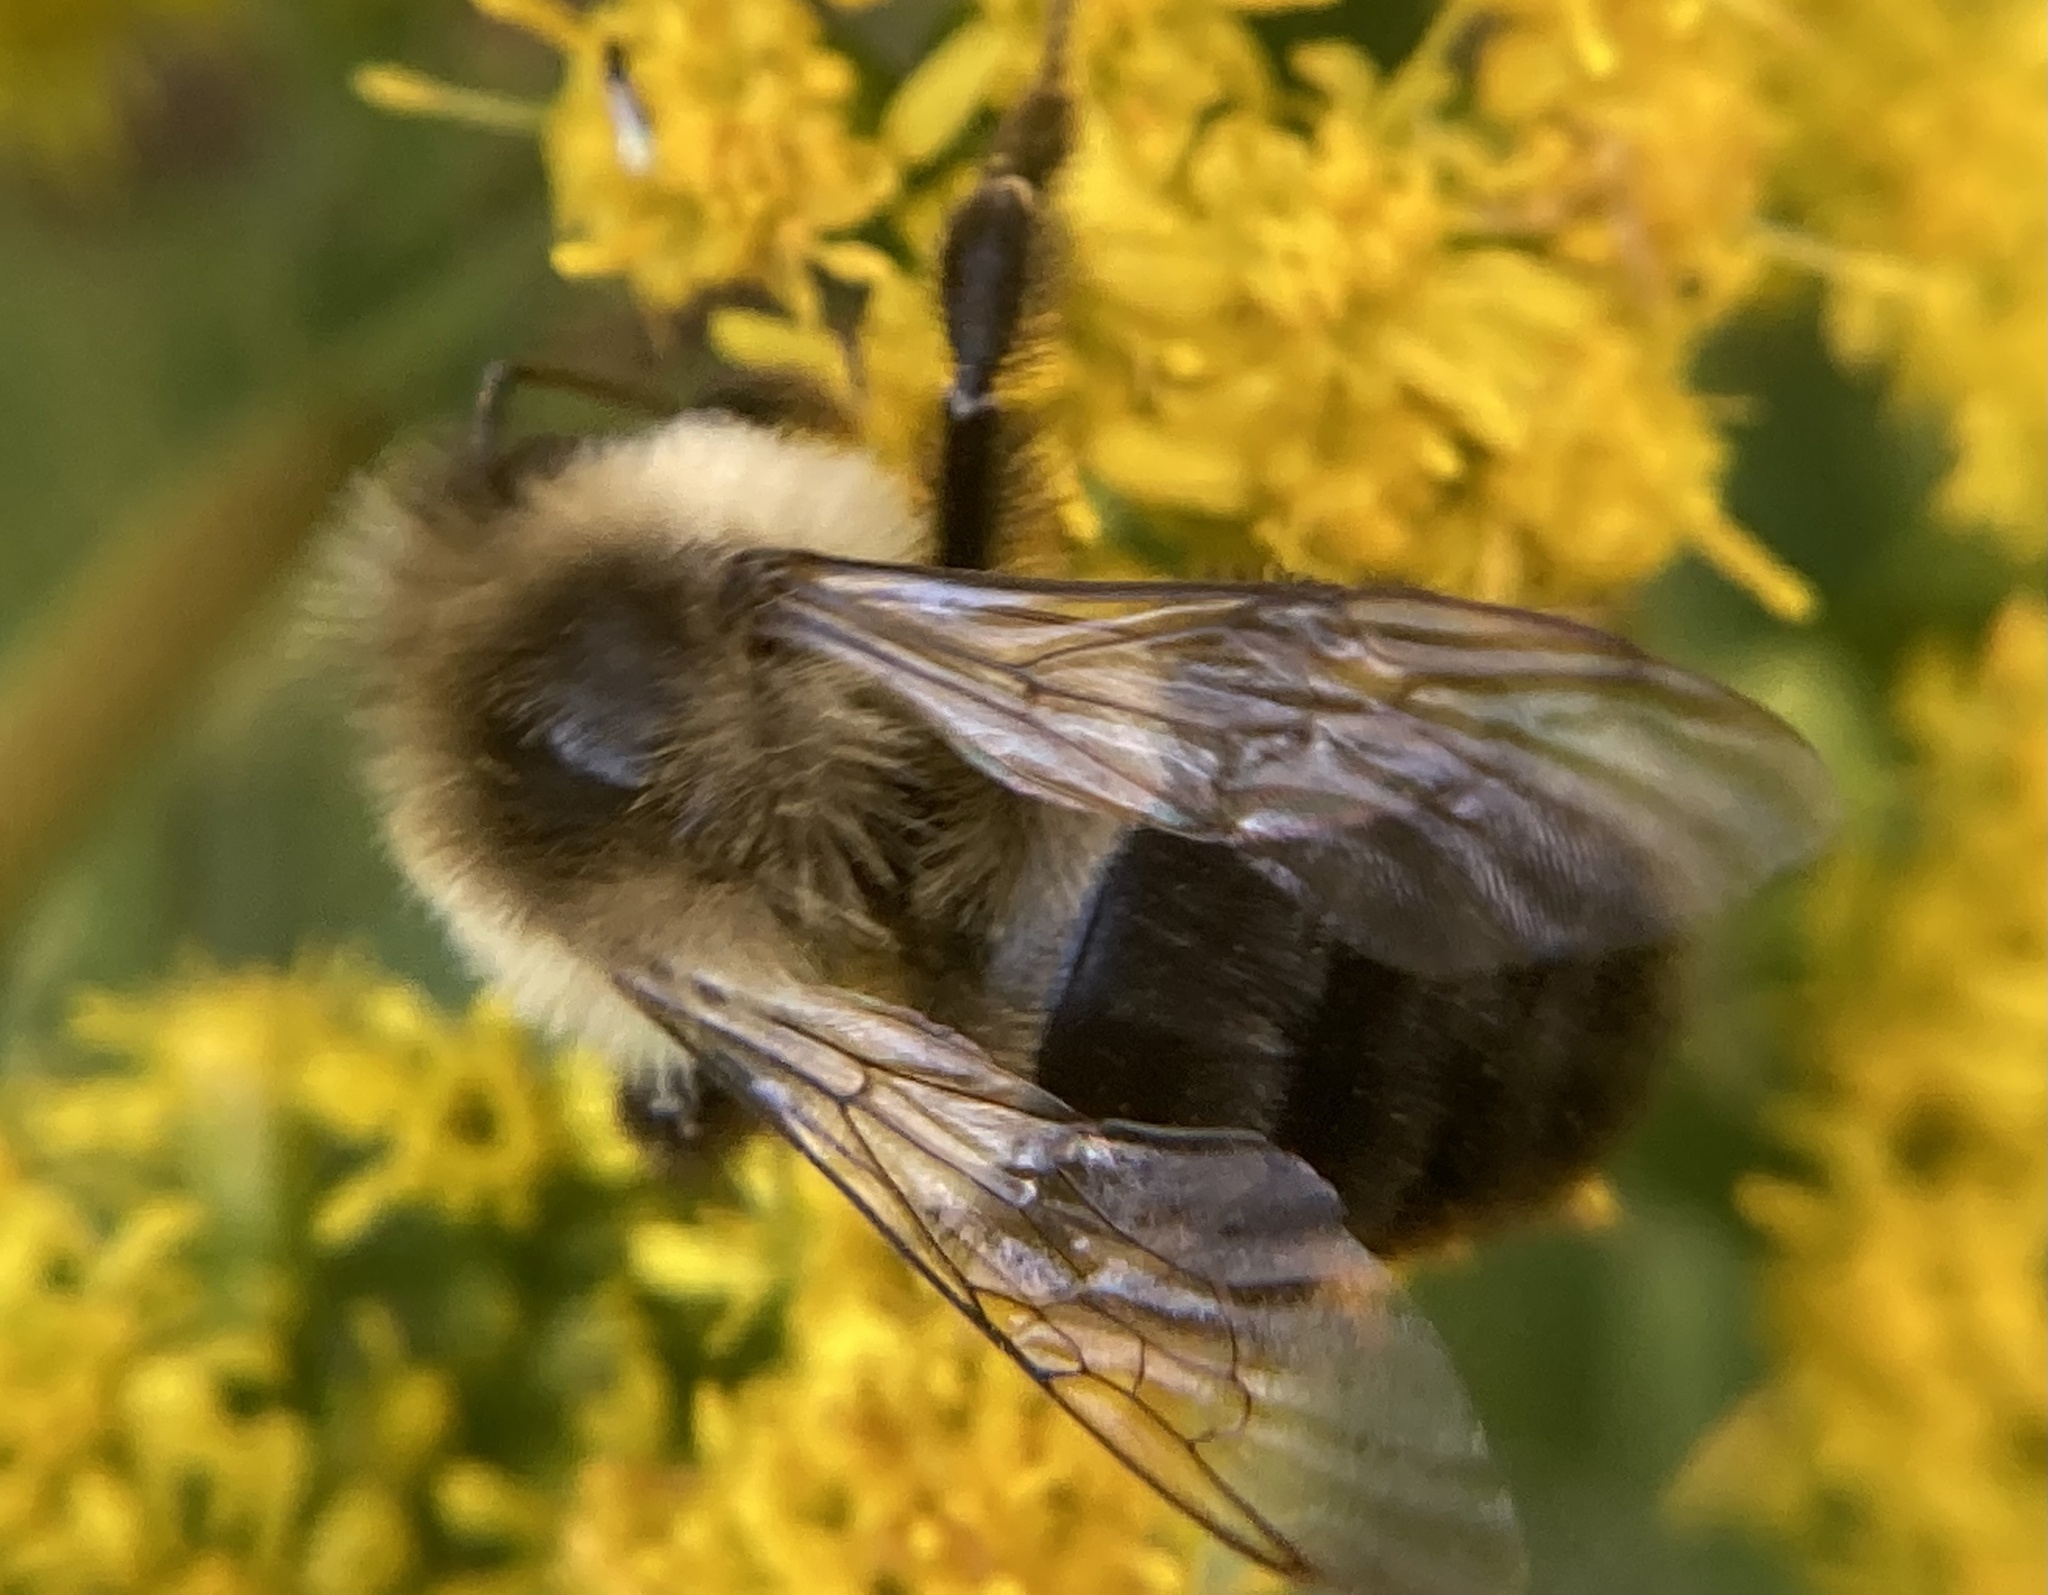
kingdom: Animalia
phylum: Arthropoda
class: Insecta
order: Hymenoptera
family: Apidae
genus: Bombus
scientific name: Bombus impatiens
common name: Common eastern bumble bee
